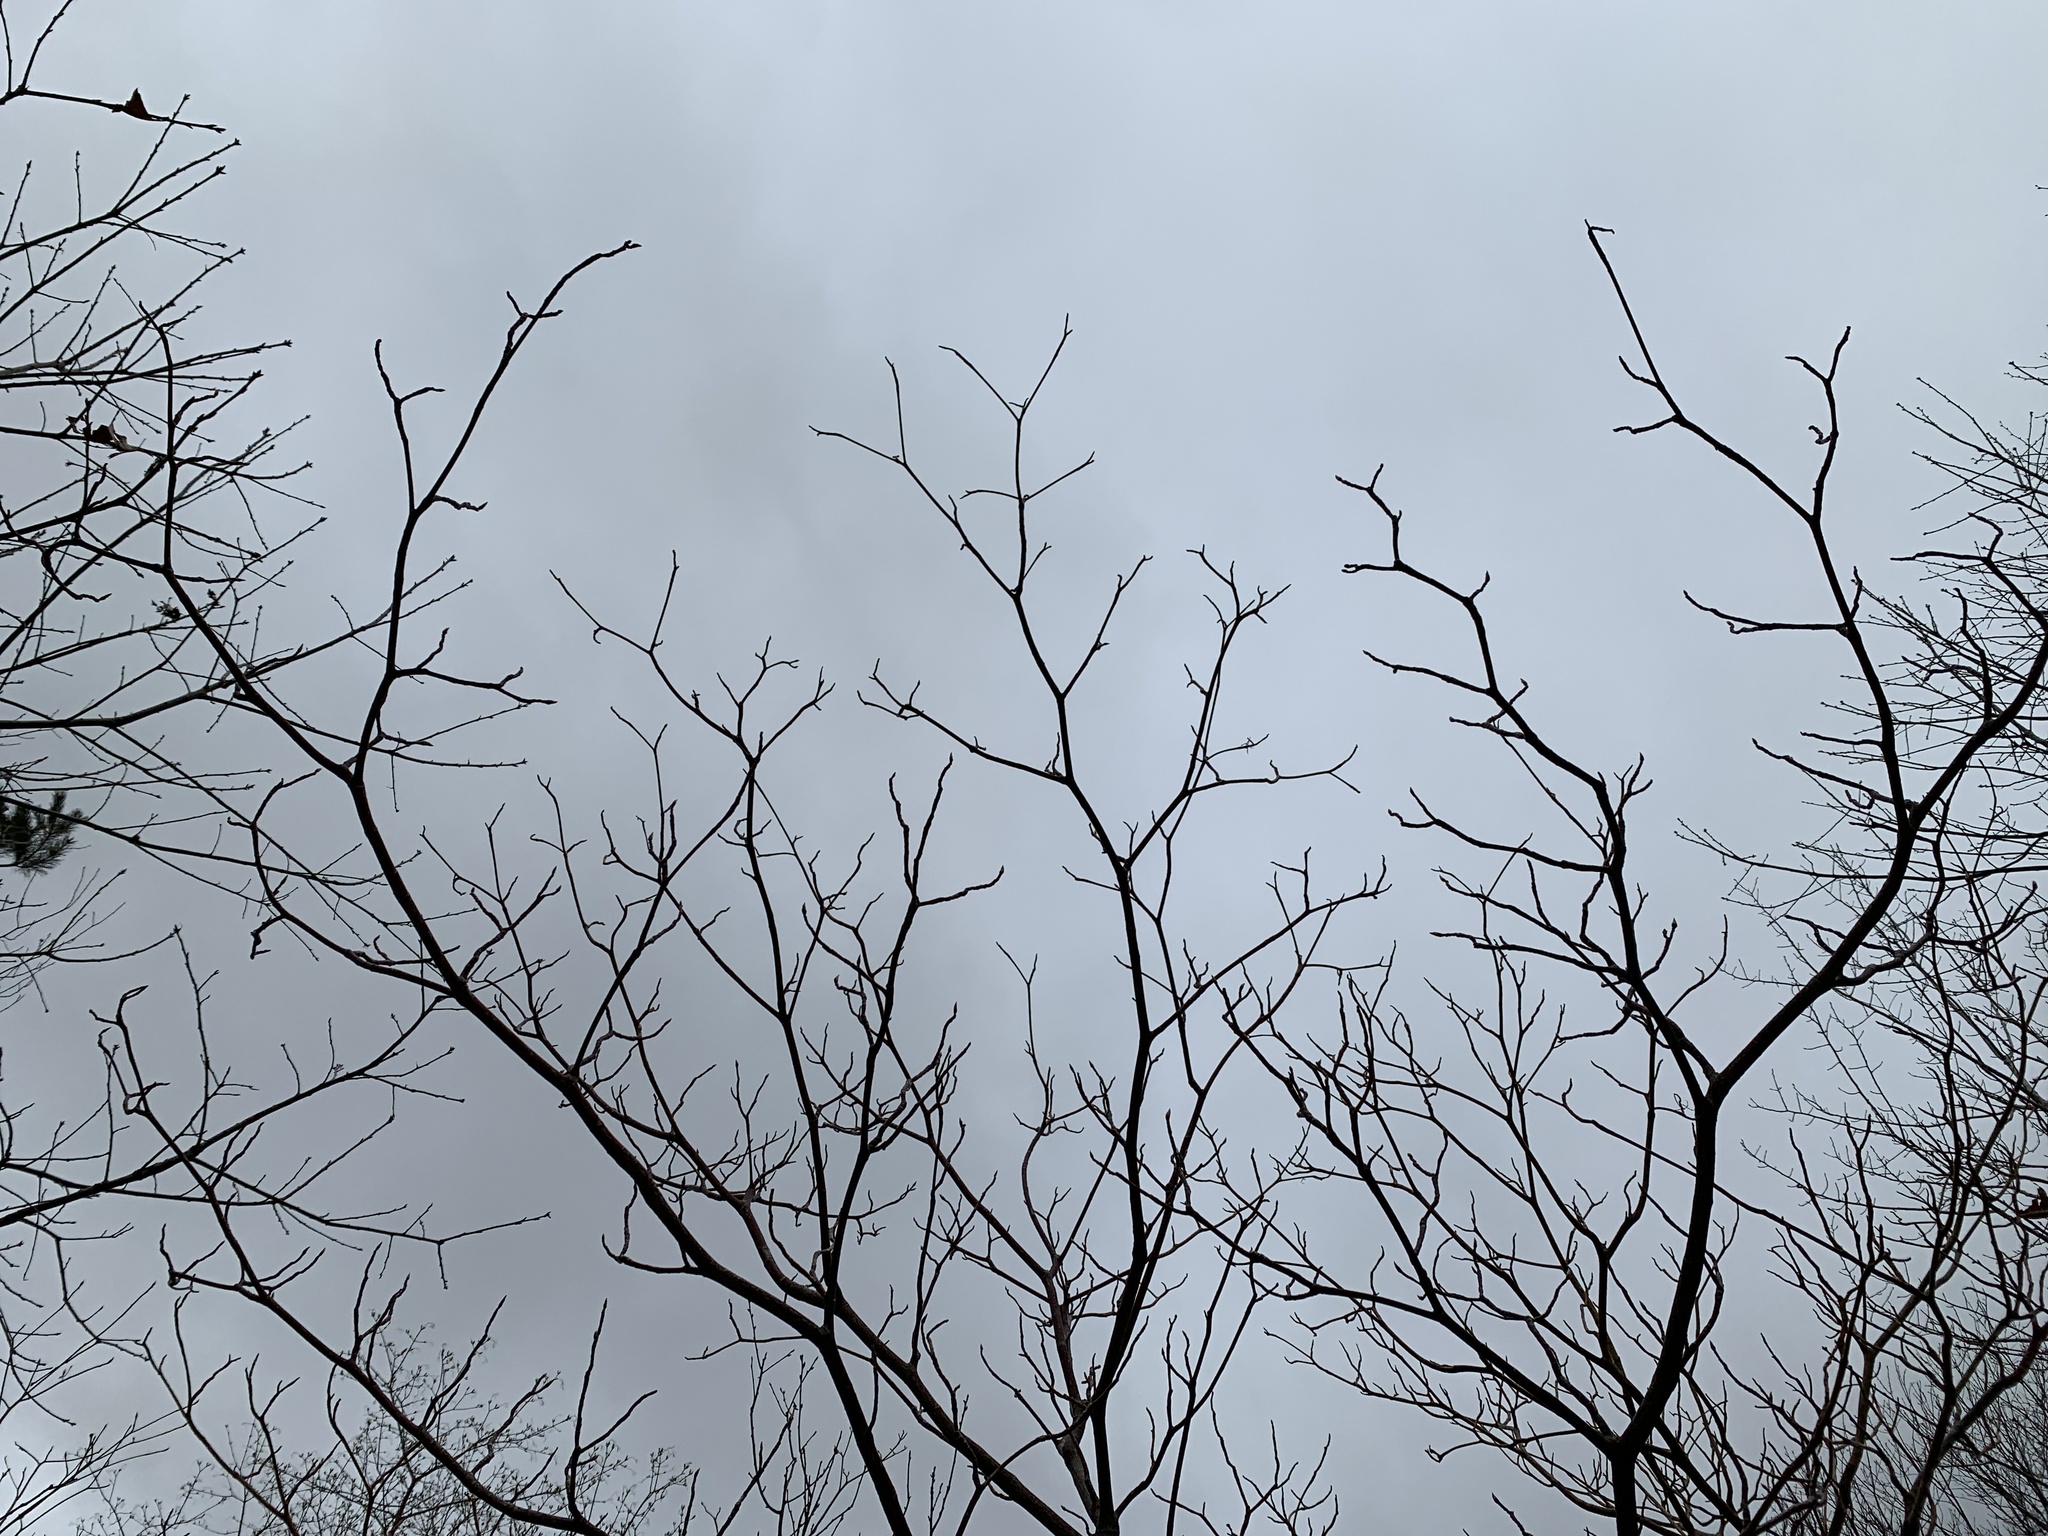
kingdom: Plantae
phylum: Tracheophyta
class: Magnoliopsida
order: Cornales
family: Cornaceae
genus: Cornus
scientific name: Cornus alternifolia
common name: Pagoda dogwood
